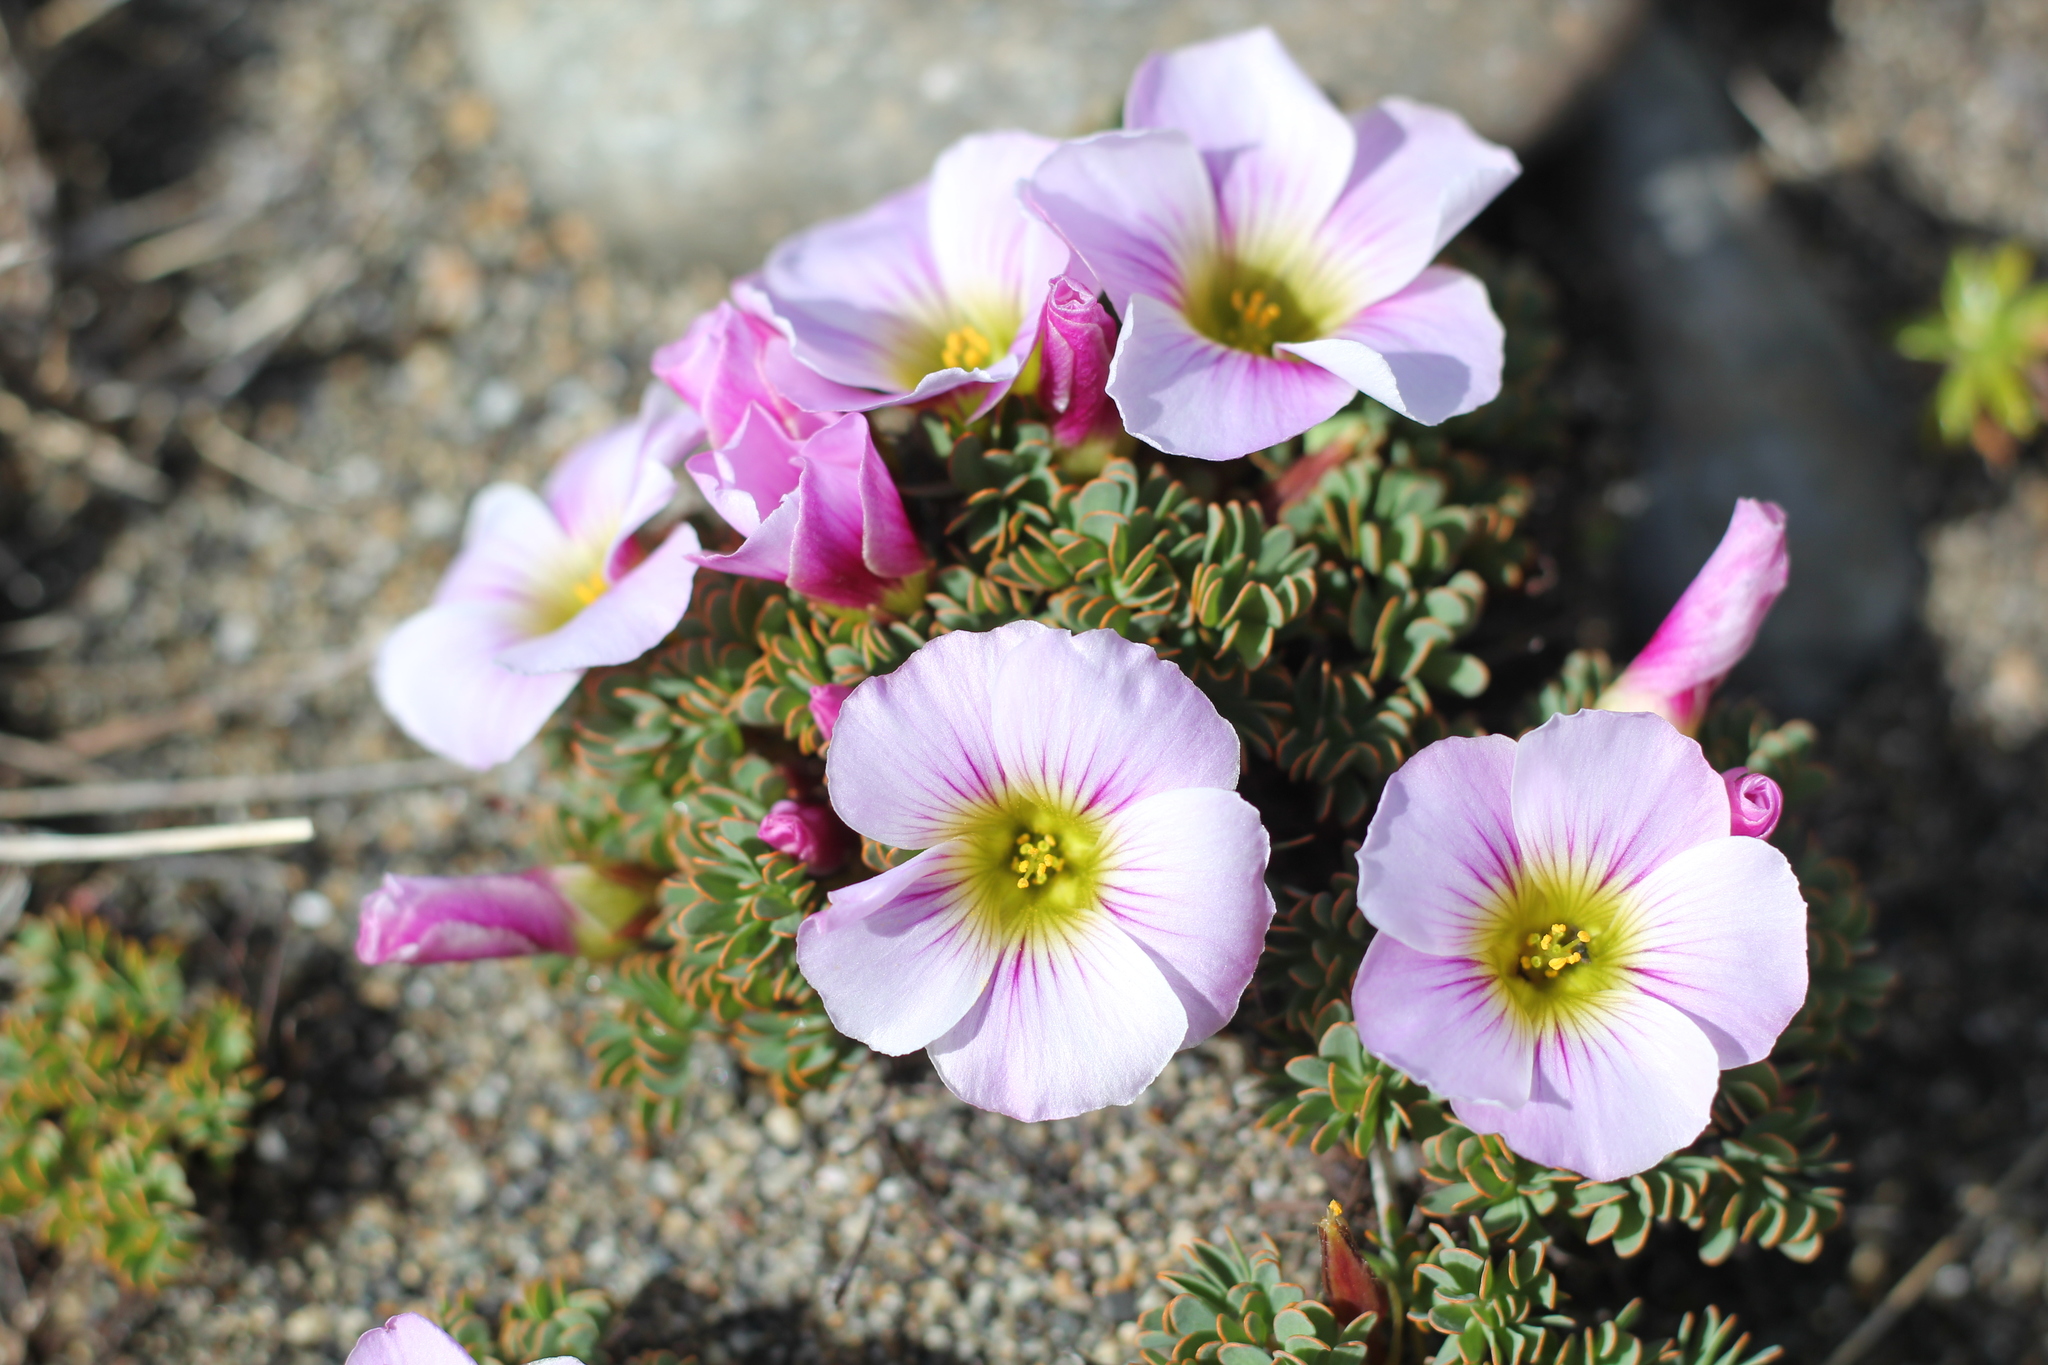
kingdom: Plantae
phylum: Tracheophyta
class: Magnoliopsida
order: Oxalidales
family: Oxalidaceae
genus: Oxalis
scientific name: Oxalis enneaphylla
